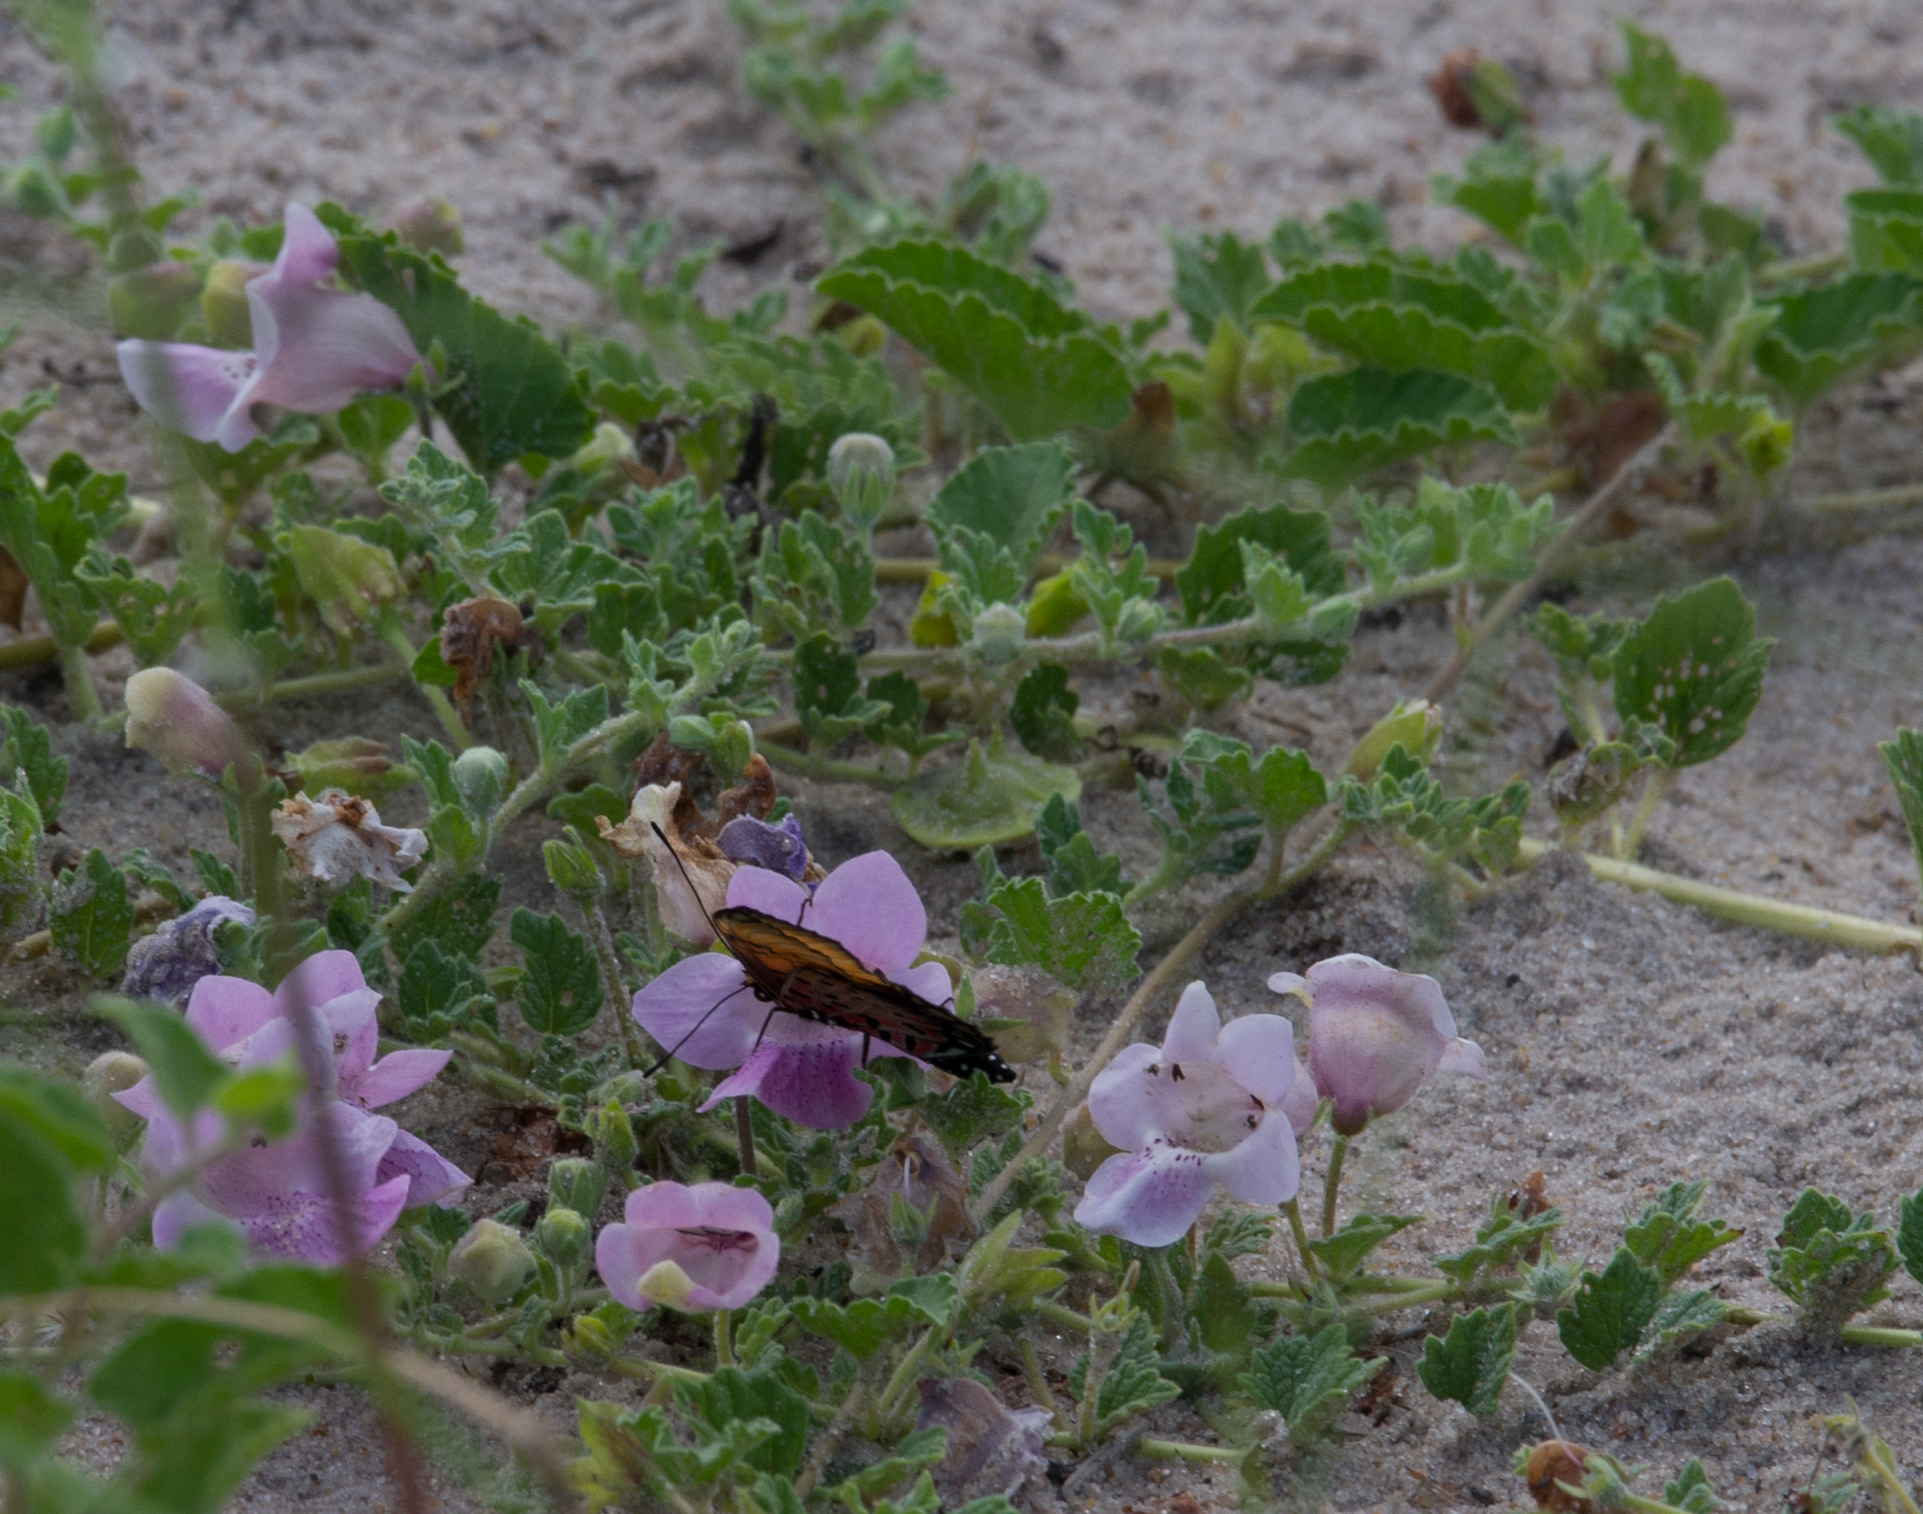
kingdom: Plantae
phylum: Tracheophyta
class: Magnoliopsida
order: Lamiales
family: Pedaliaceae
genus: Dicerocaryum
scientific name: Dicerocaryum eriocarpum
